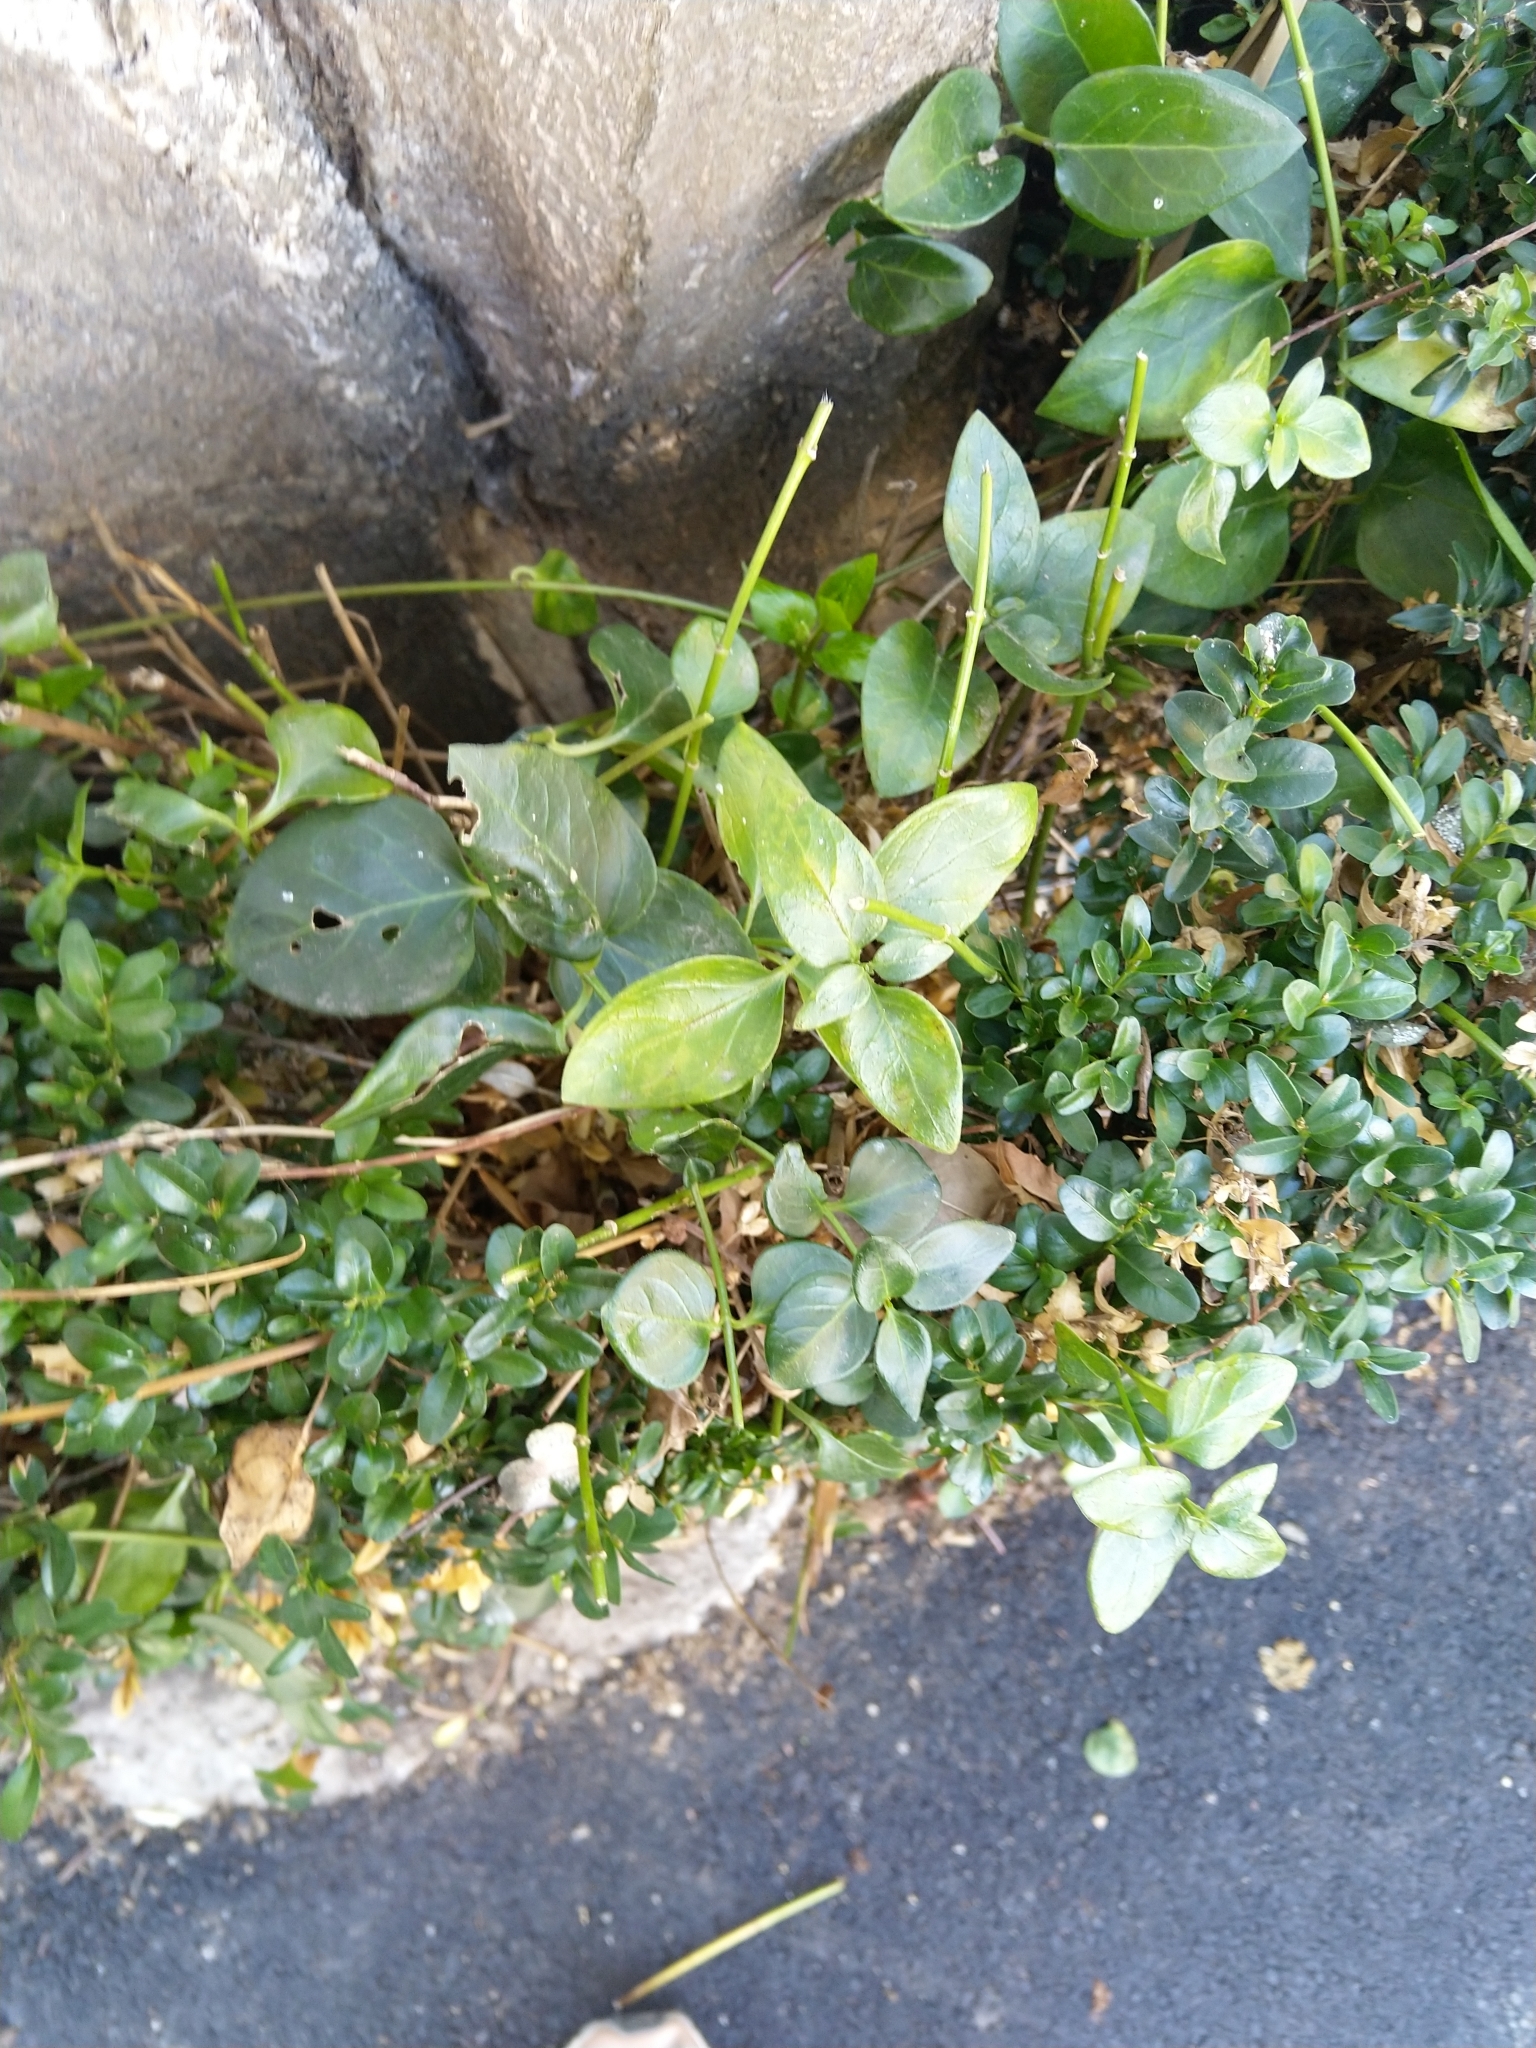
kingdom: Plantae
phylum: Tracheophyta
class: Magnoliopsida
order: Gentianales
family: Apocynaceae
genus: Vinca
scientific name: Vinca major
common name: Greater periwinkle
